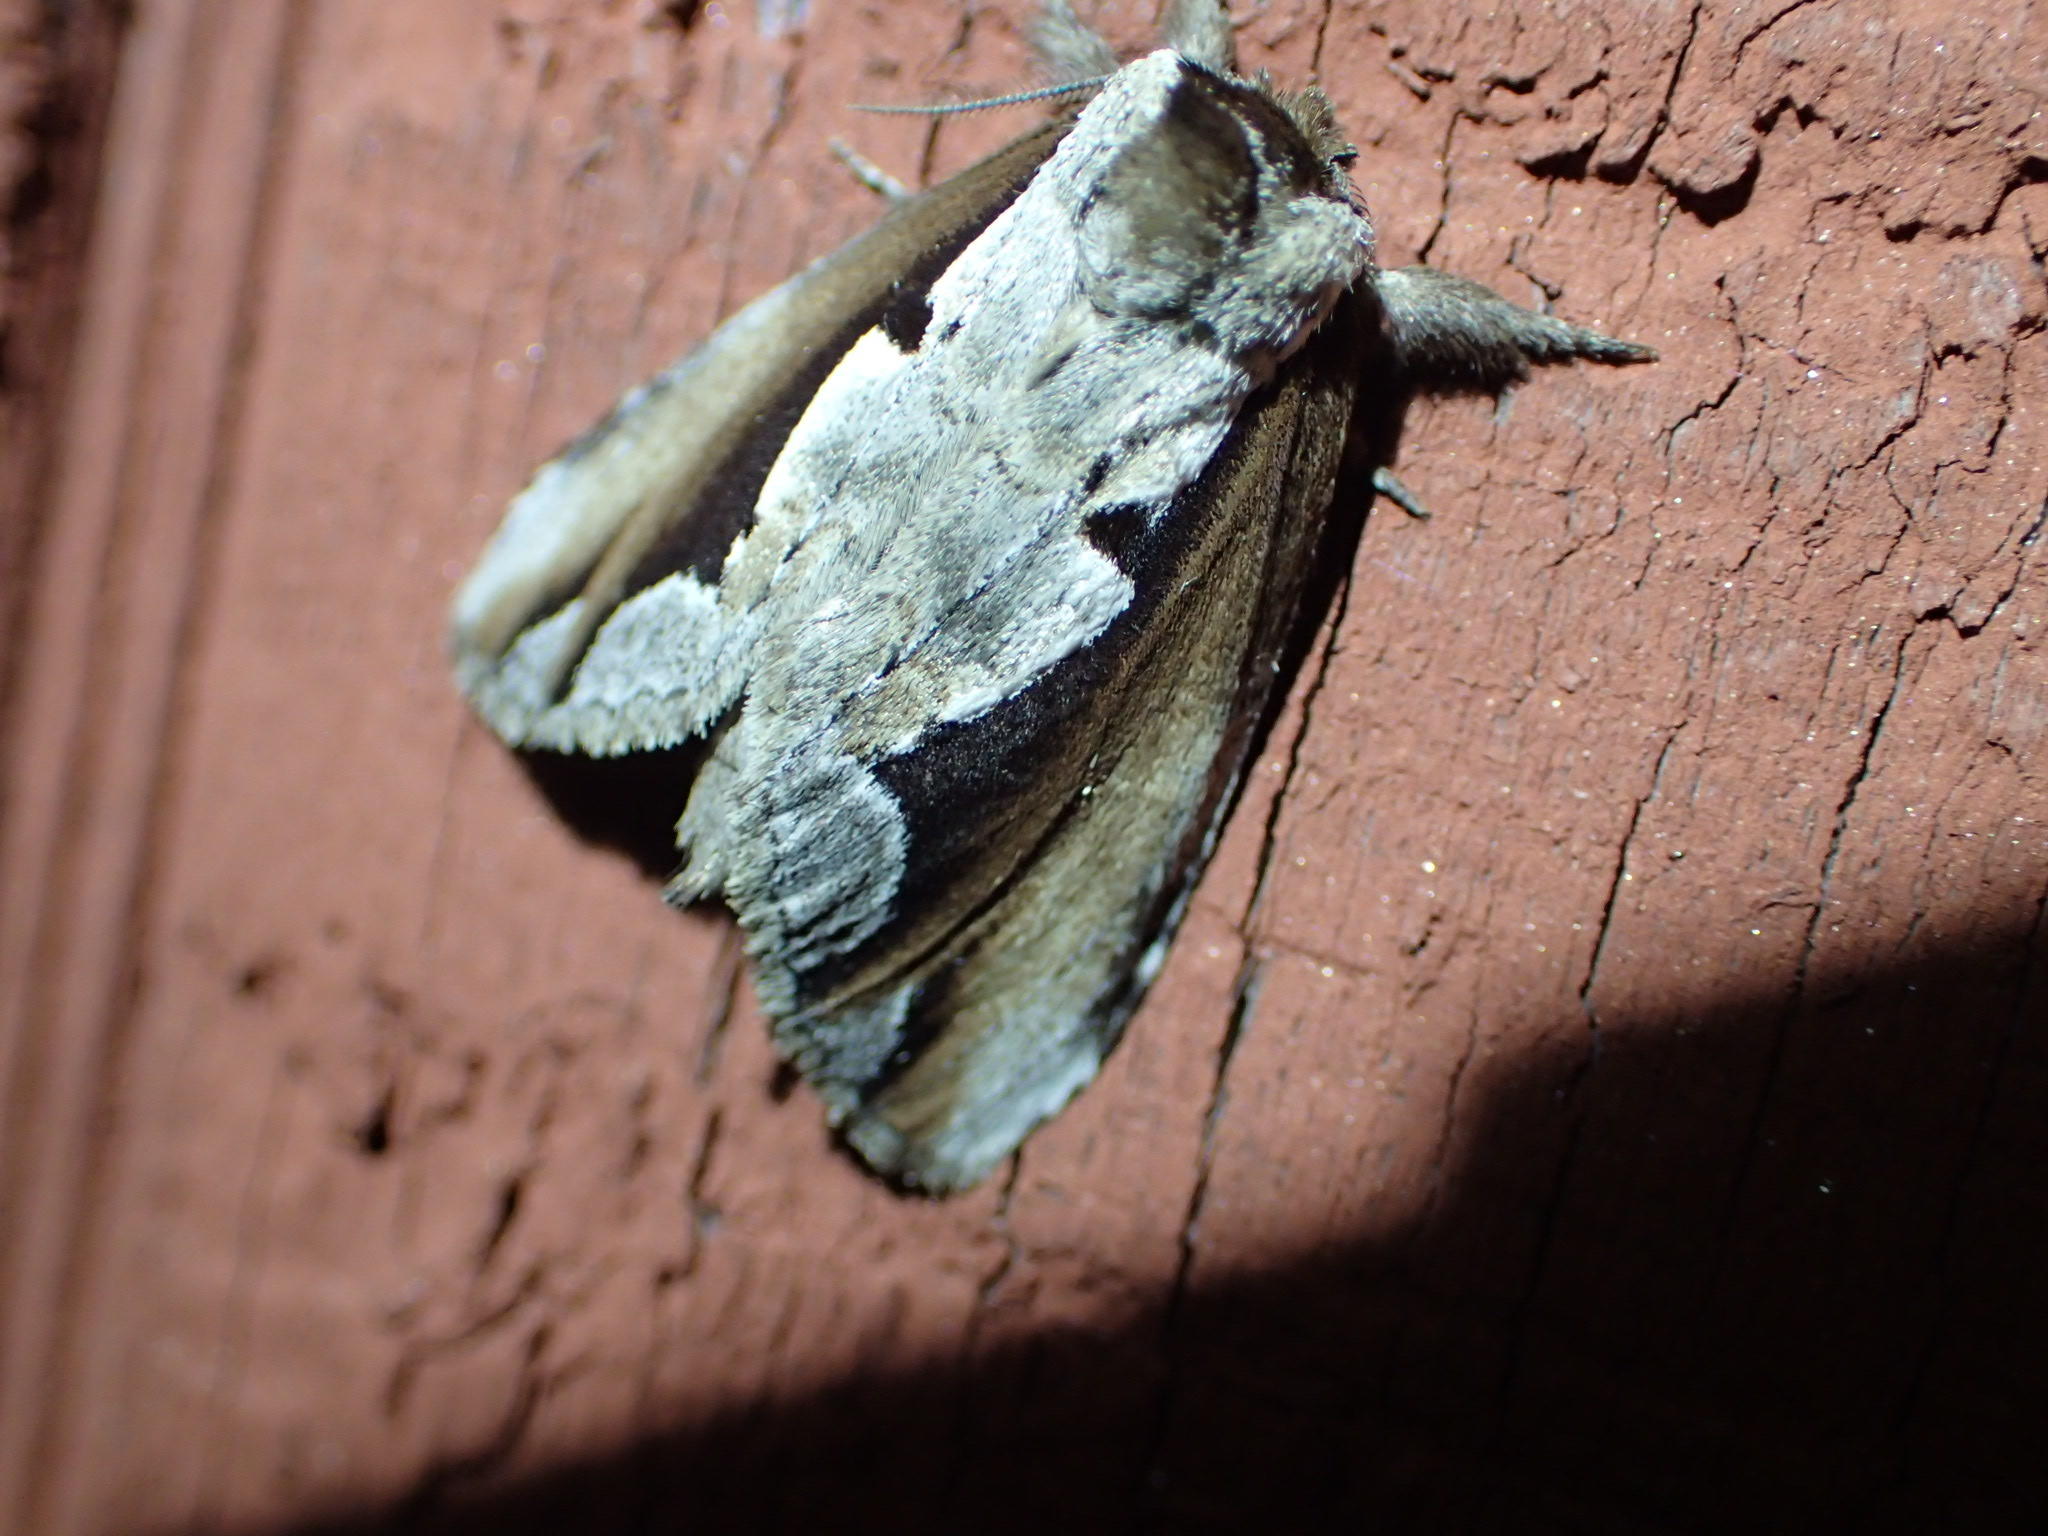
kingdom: Animalia
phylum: Arthropoda
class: Insecta
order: Lepidoptera
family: Notodontidae
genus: Nerice
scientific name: Nerice bidentata
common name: Double-toothed prominent
